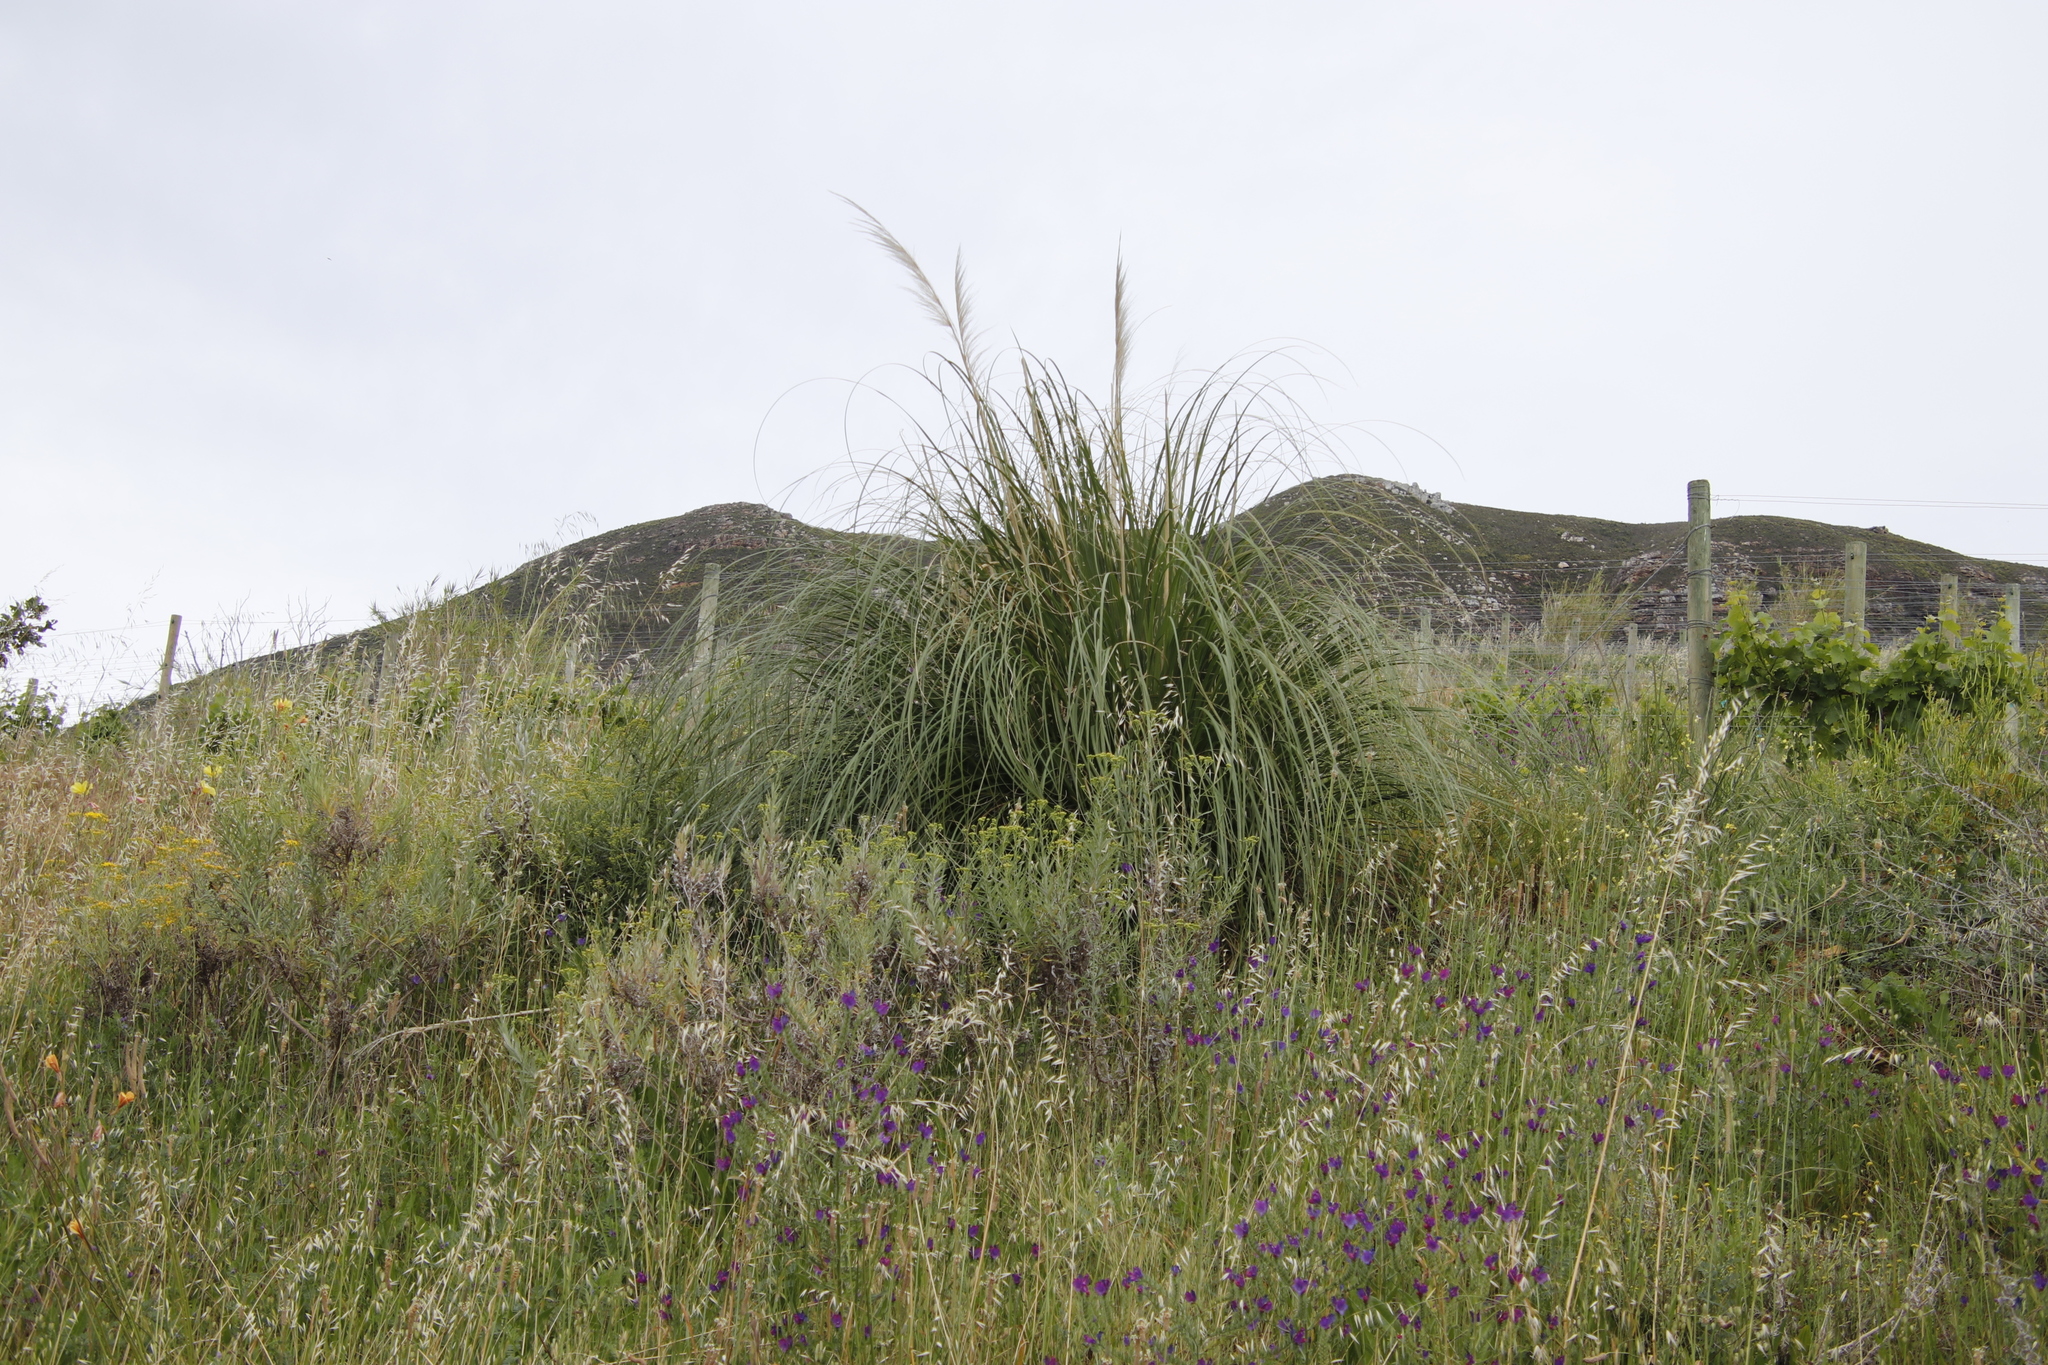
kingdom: Plantae
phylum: Tracheophyta
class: Liliopsida
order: Poales
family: Poaceae
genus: Cortaderia
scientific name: Cortaderia selloana
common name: Uruguayan pampas grass
